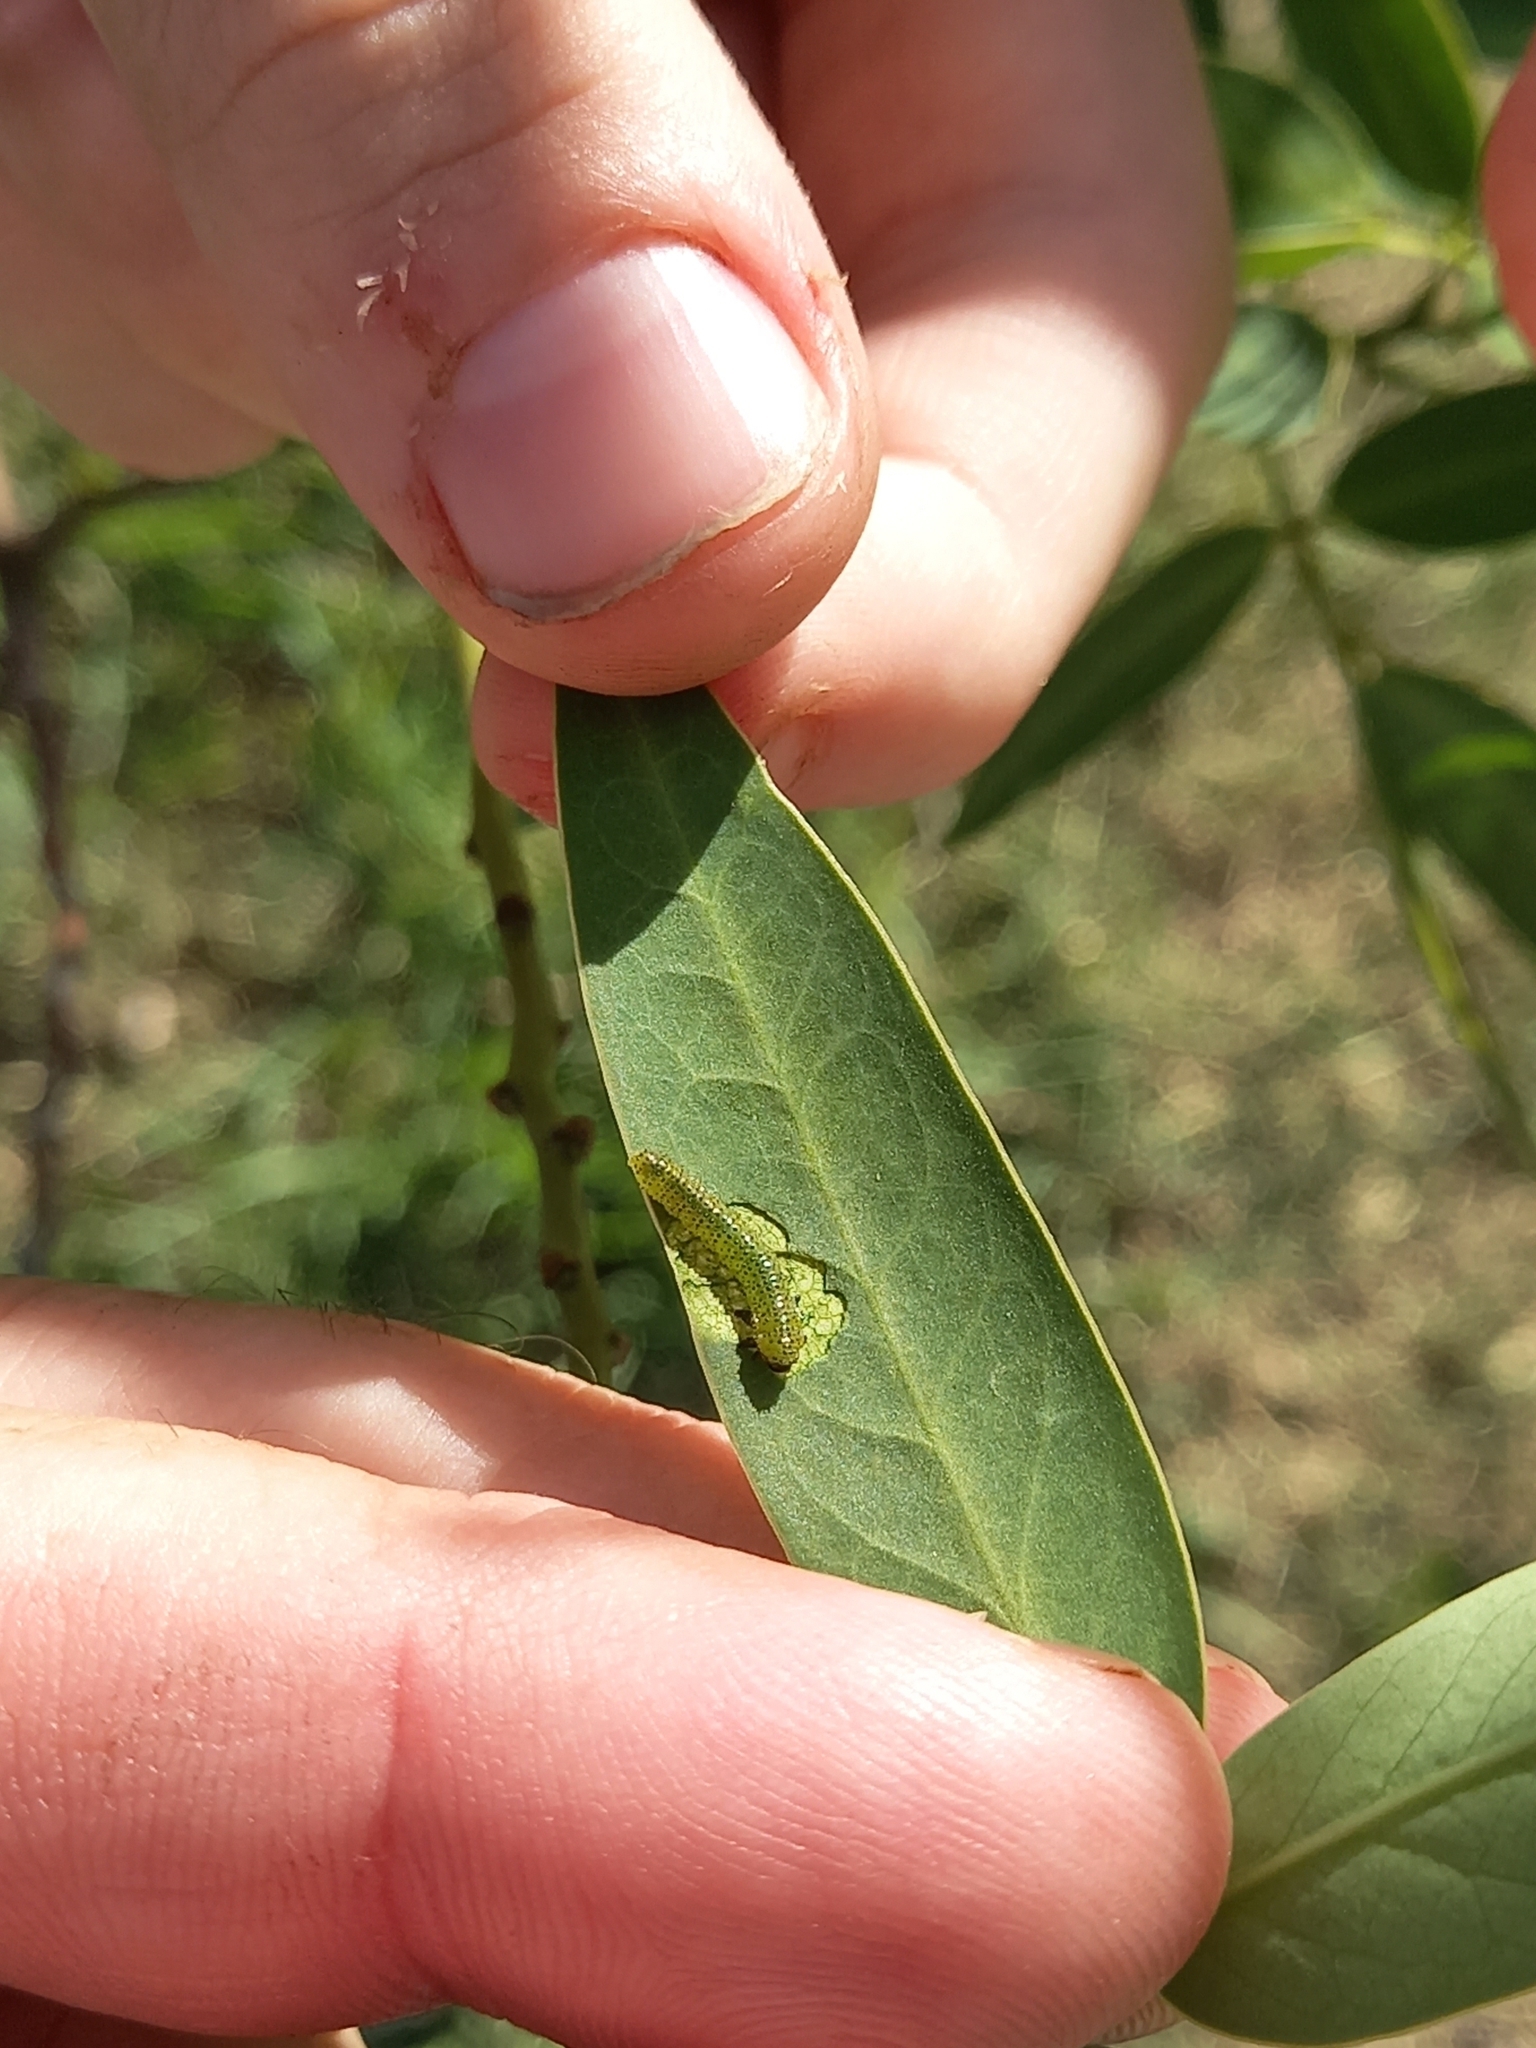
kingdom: Animalia
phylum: Arthropoda
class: Insecta
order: Hymenoptera
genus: Adurgoa
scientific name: Adurgoa
